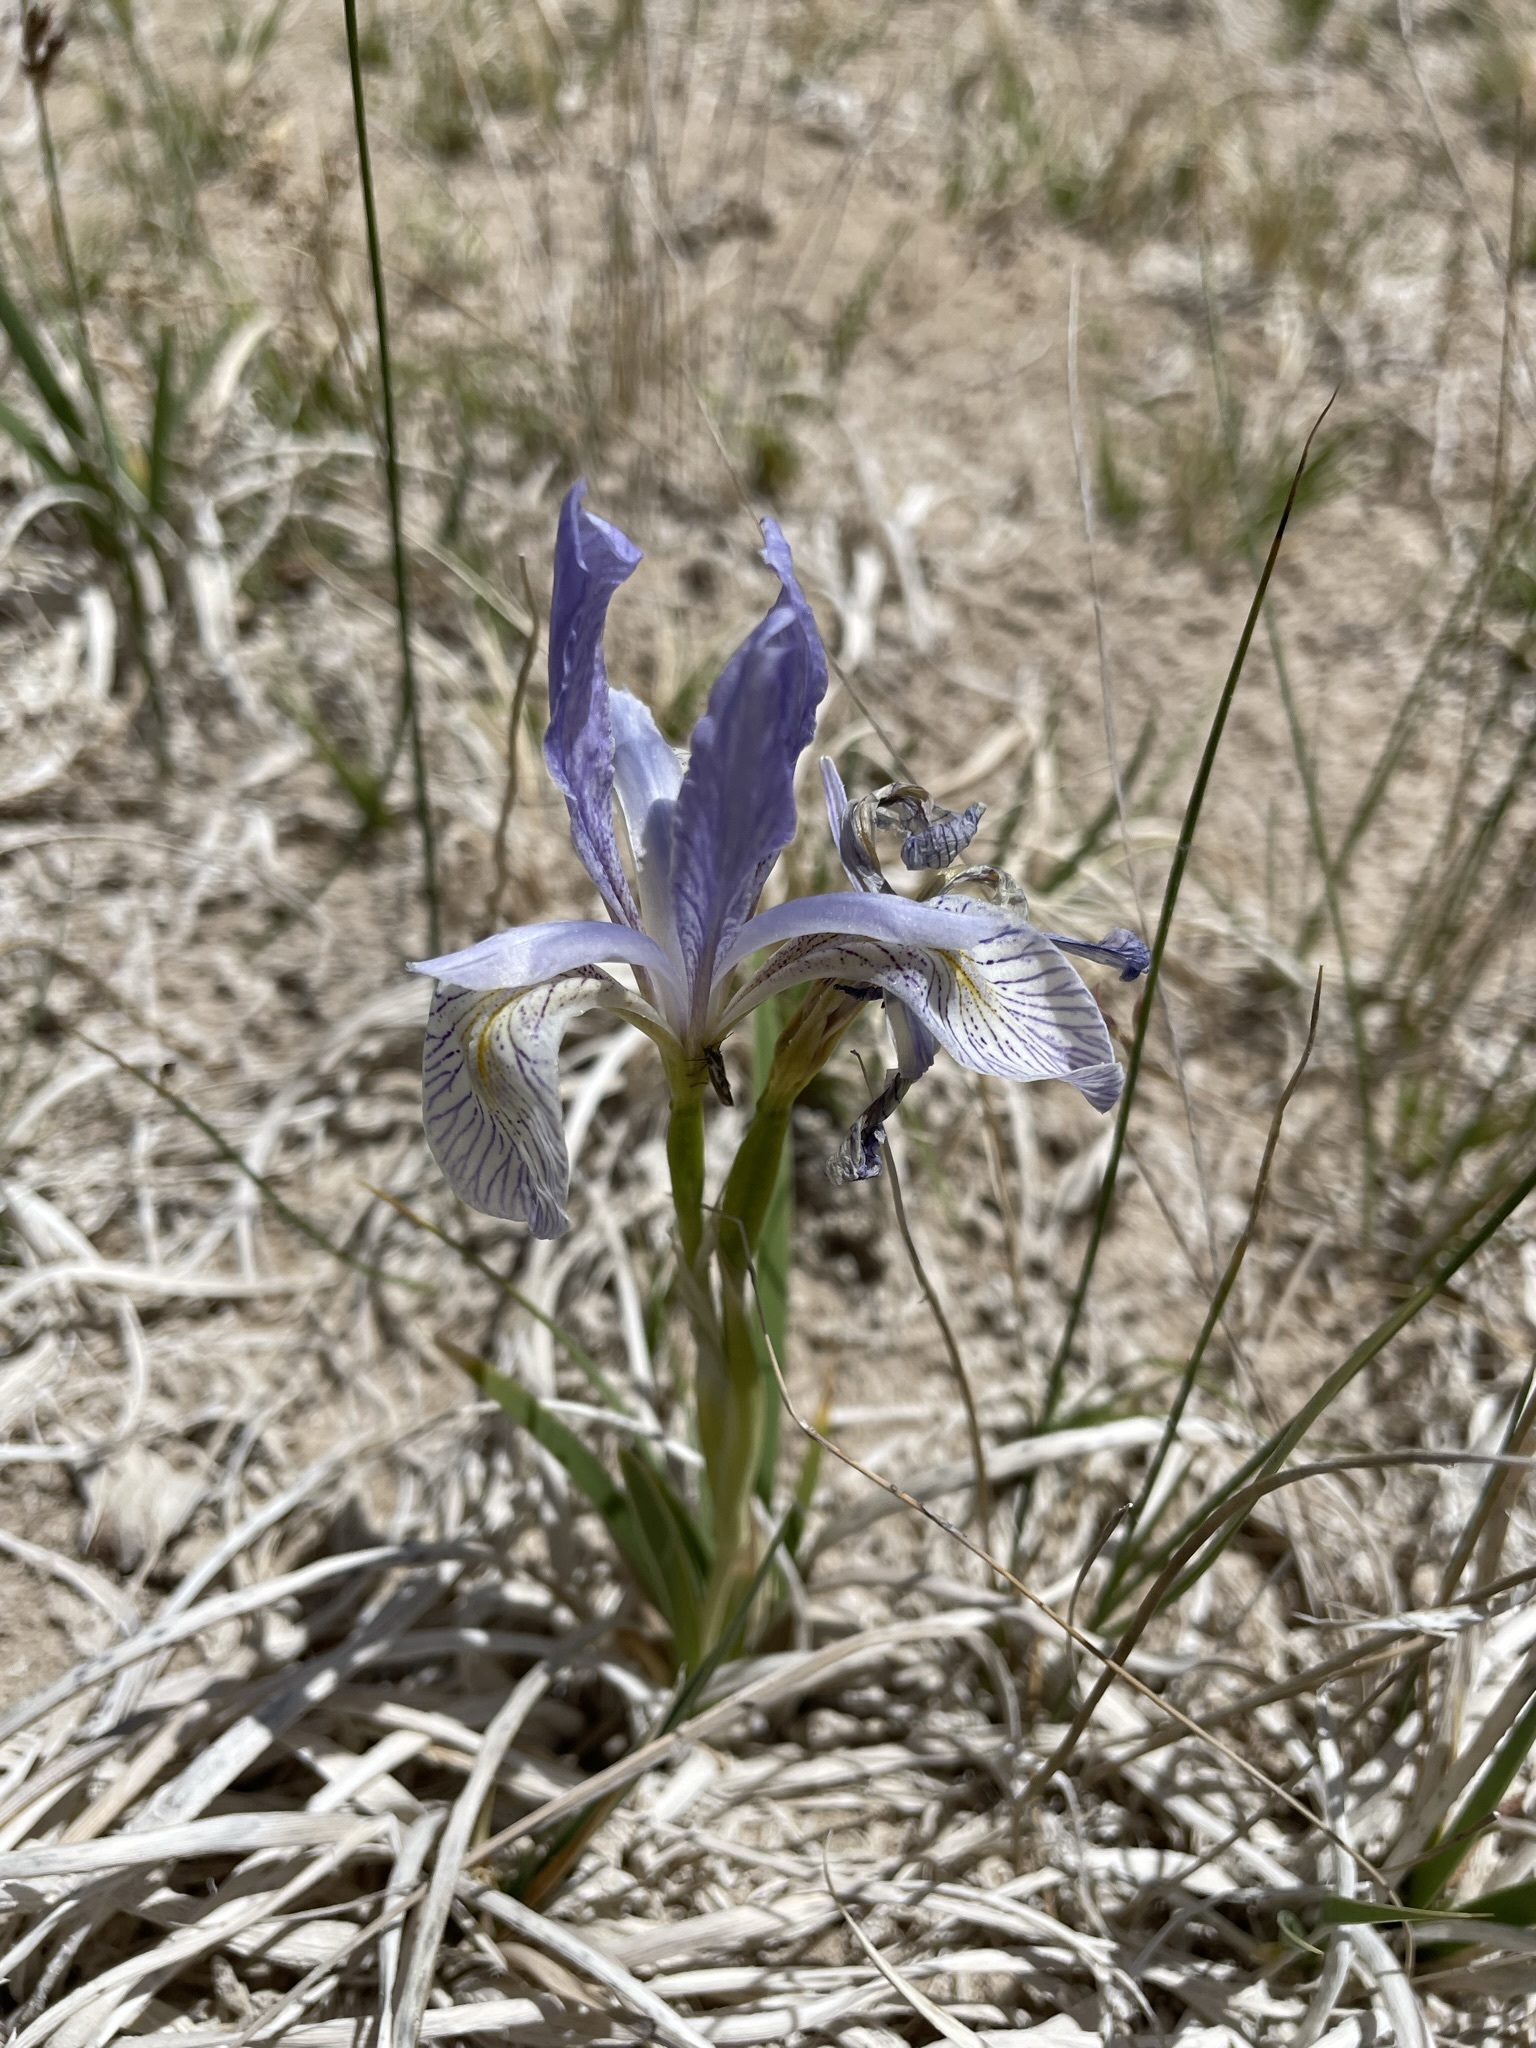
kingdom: Plantae
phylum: Tracheophyta
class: Liliopsida
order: Asparagales
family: Iridaceae
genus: Iris
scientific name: Iris missouriensis
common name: Rocky mountain iris
